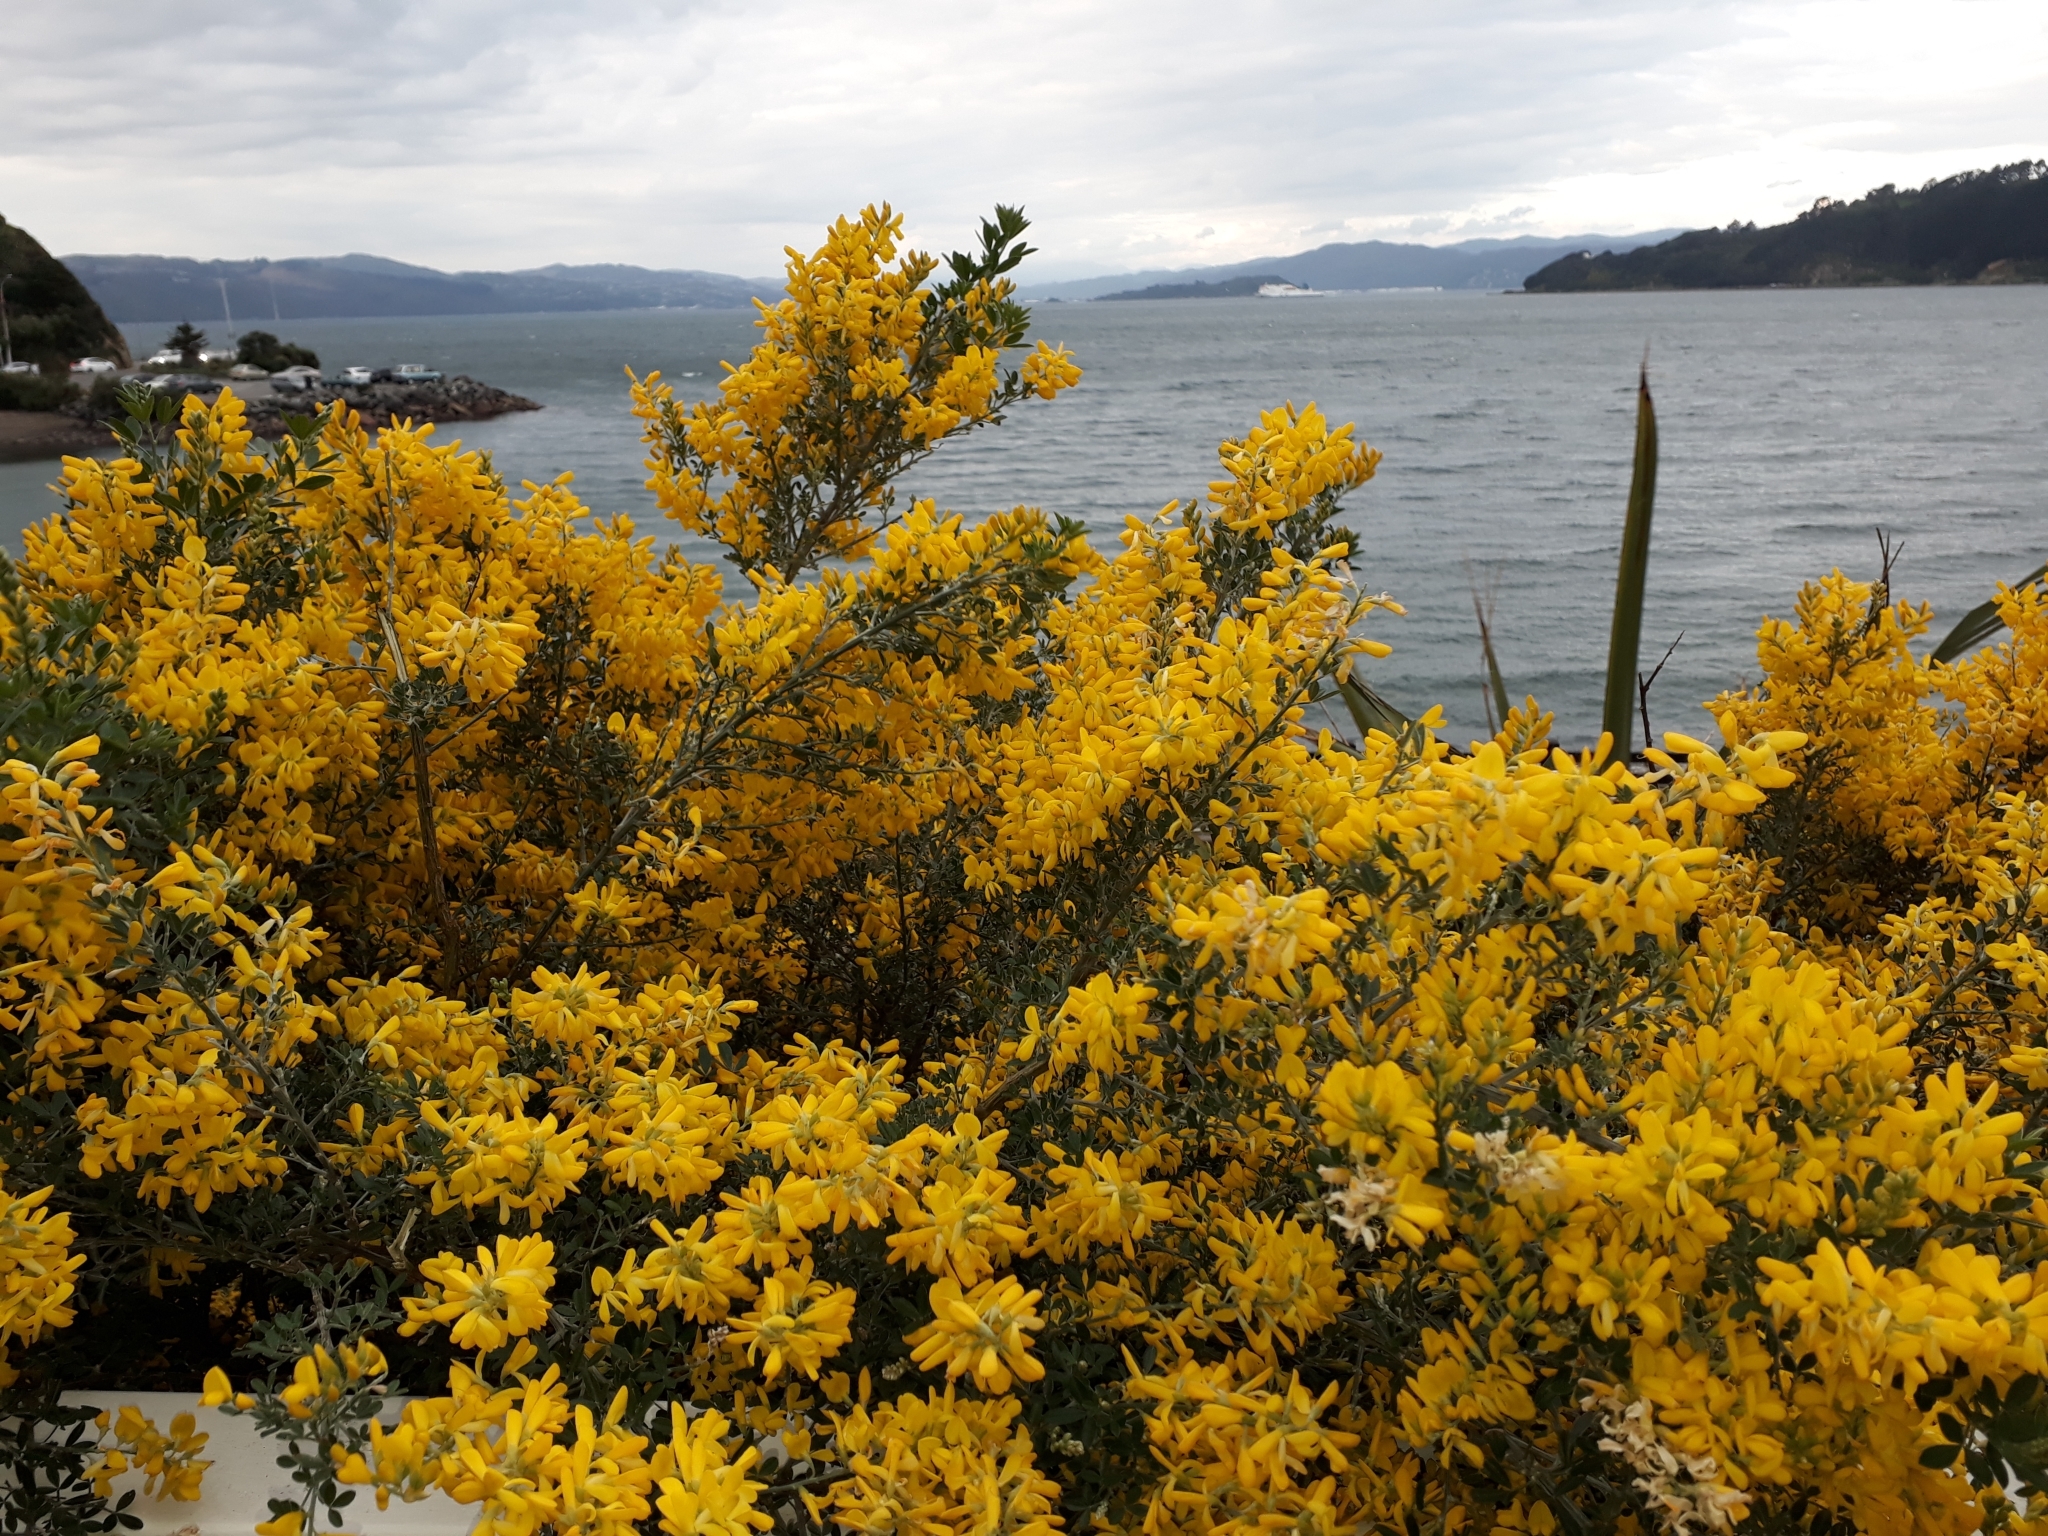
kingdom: Plantae
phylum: Tracheophyta
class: Magnoliopsida
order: Fabales
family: Fabaceae
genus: Genista
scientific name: Genista monspessulana
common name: Montpellier broom
